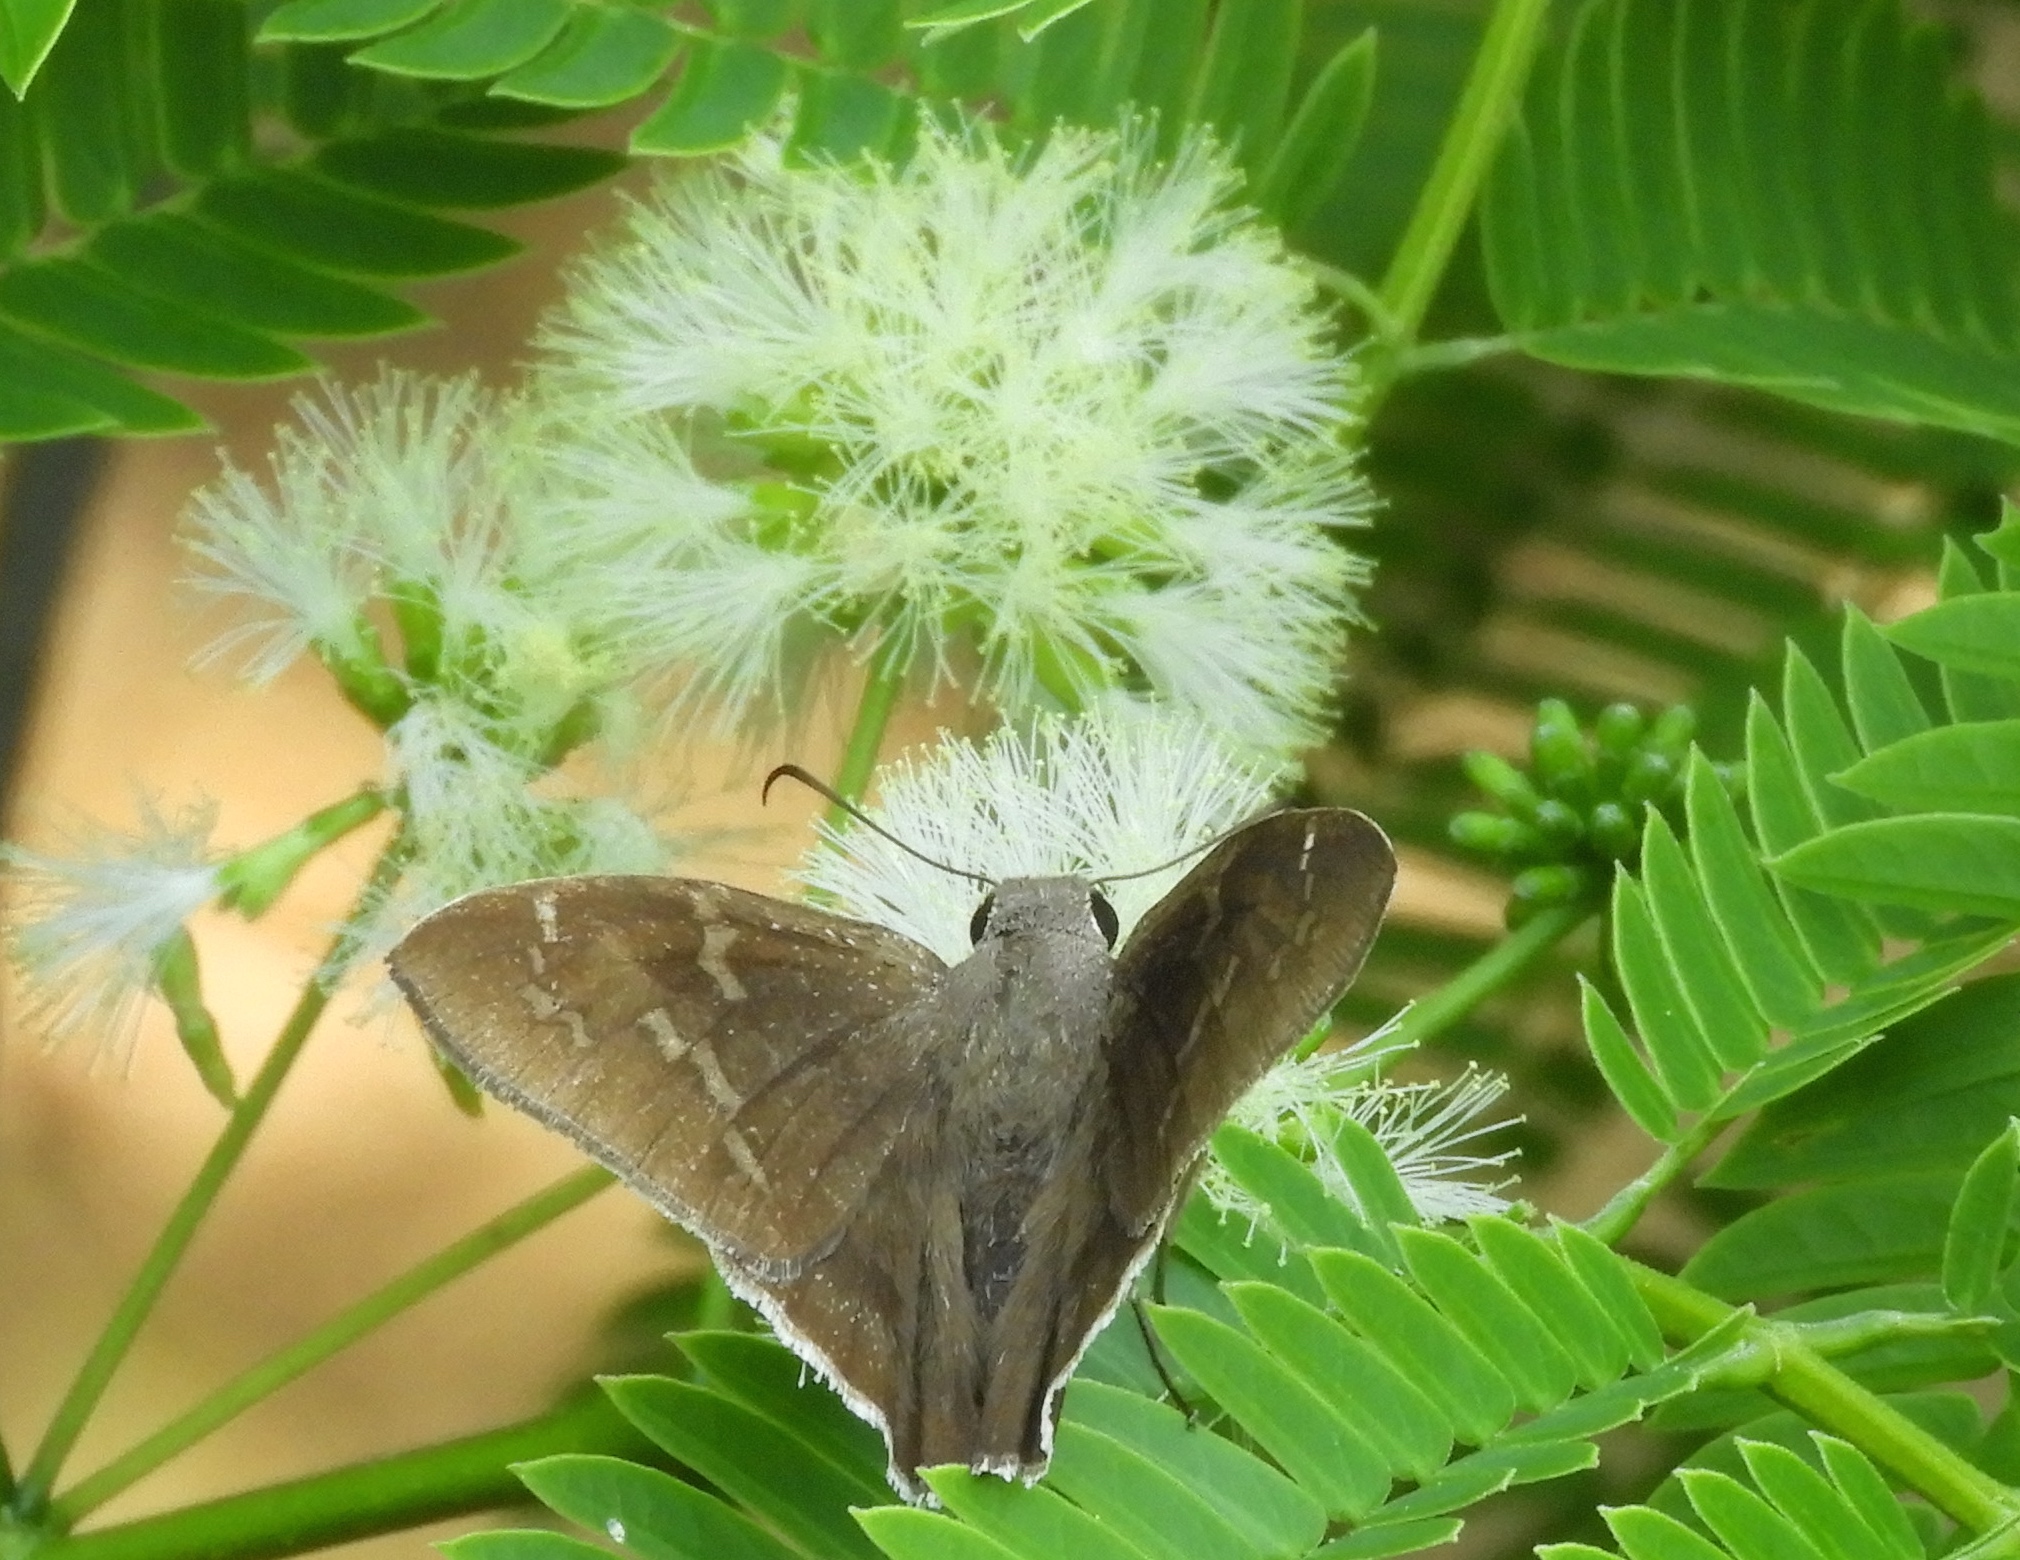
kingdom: Animalia
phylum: Arthropoda
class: Insecta
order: Lepidoptera
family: Hesperiidae
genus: Achalarus
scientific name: Achalarus Murgaria jalapus
